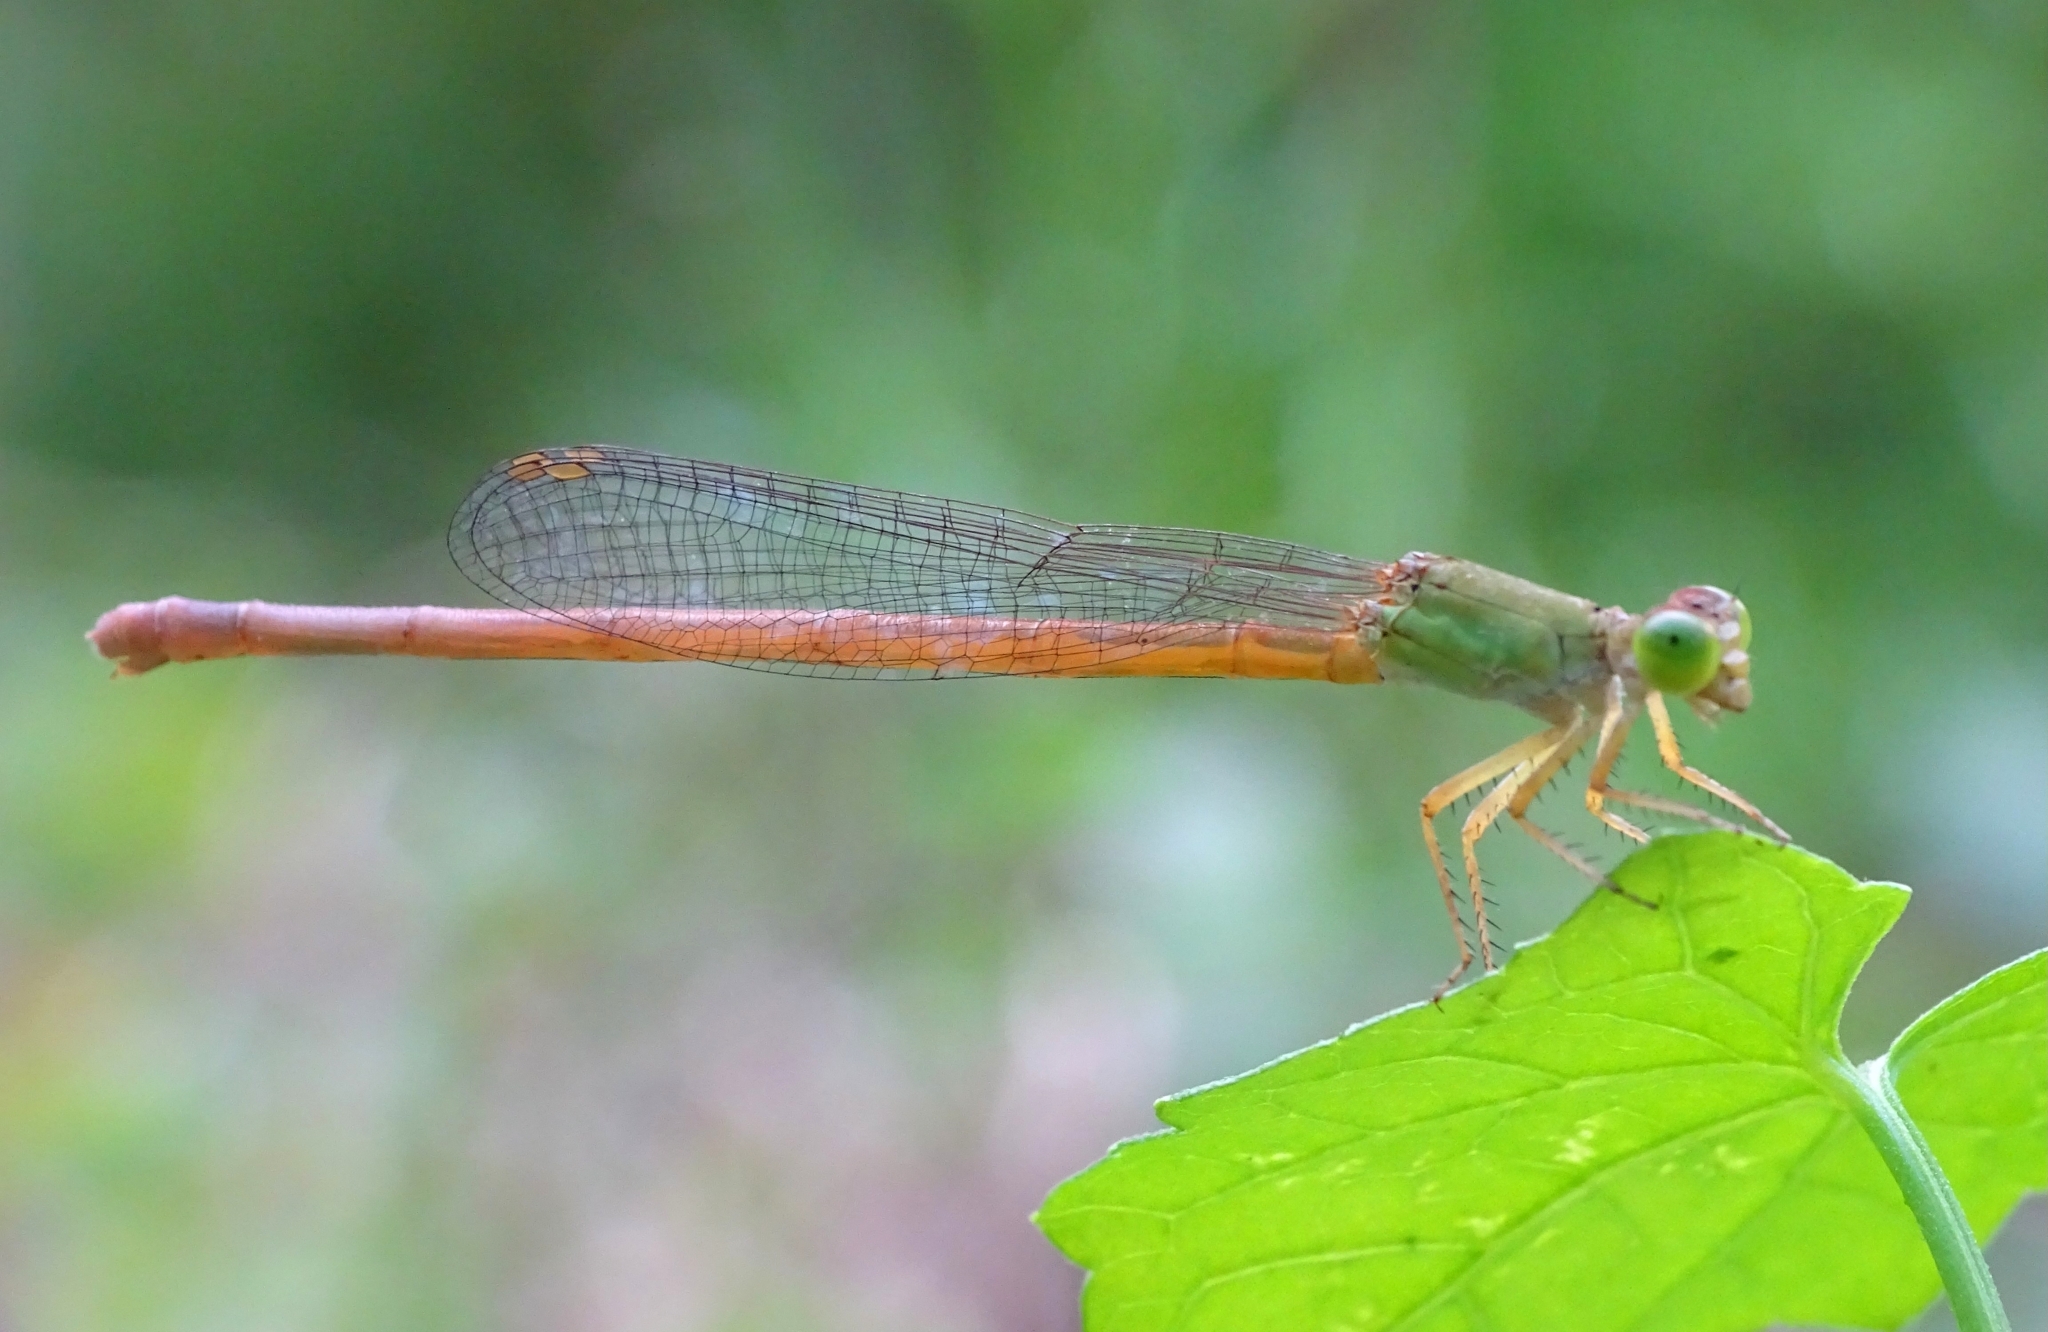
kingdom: Animalia
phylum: Arthropoda
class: Insecta
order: Odonata
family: Coenagrionidae
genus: Ceriagrion
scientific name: Ceriagrion coromandelianum
